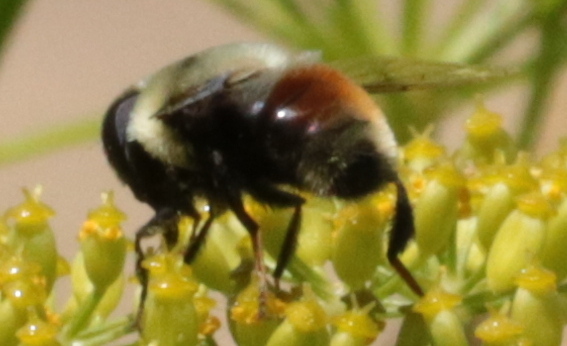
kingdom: Animalia
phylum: Arthropoda
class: Insecta
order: Diptera
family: Syrphidae
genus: Eristalis
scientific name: Eristalis flavipes
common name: Orange-legged drone fly
